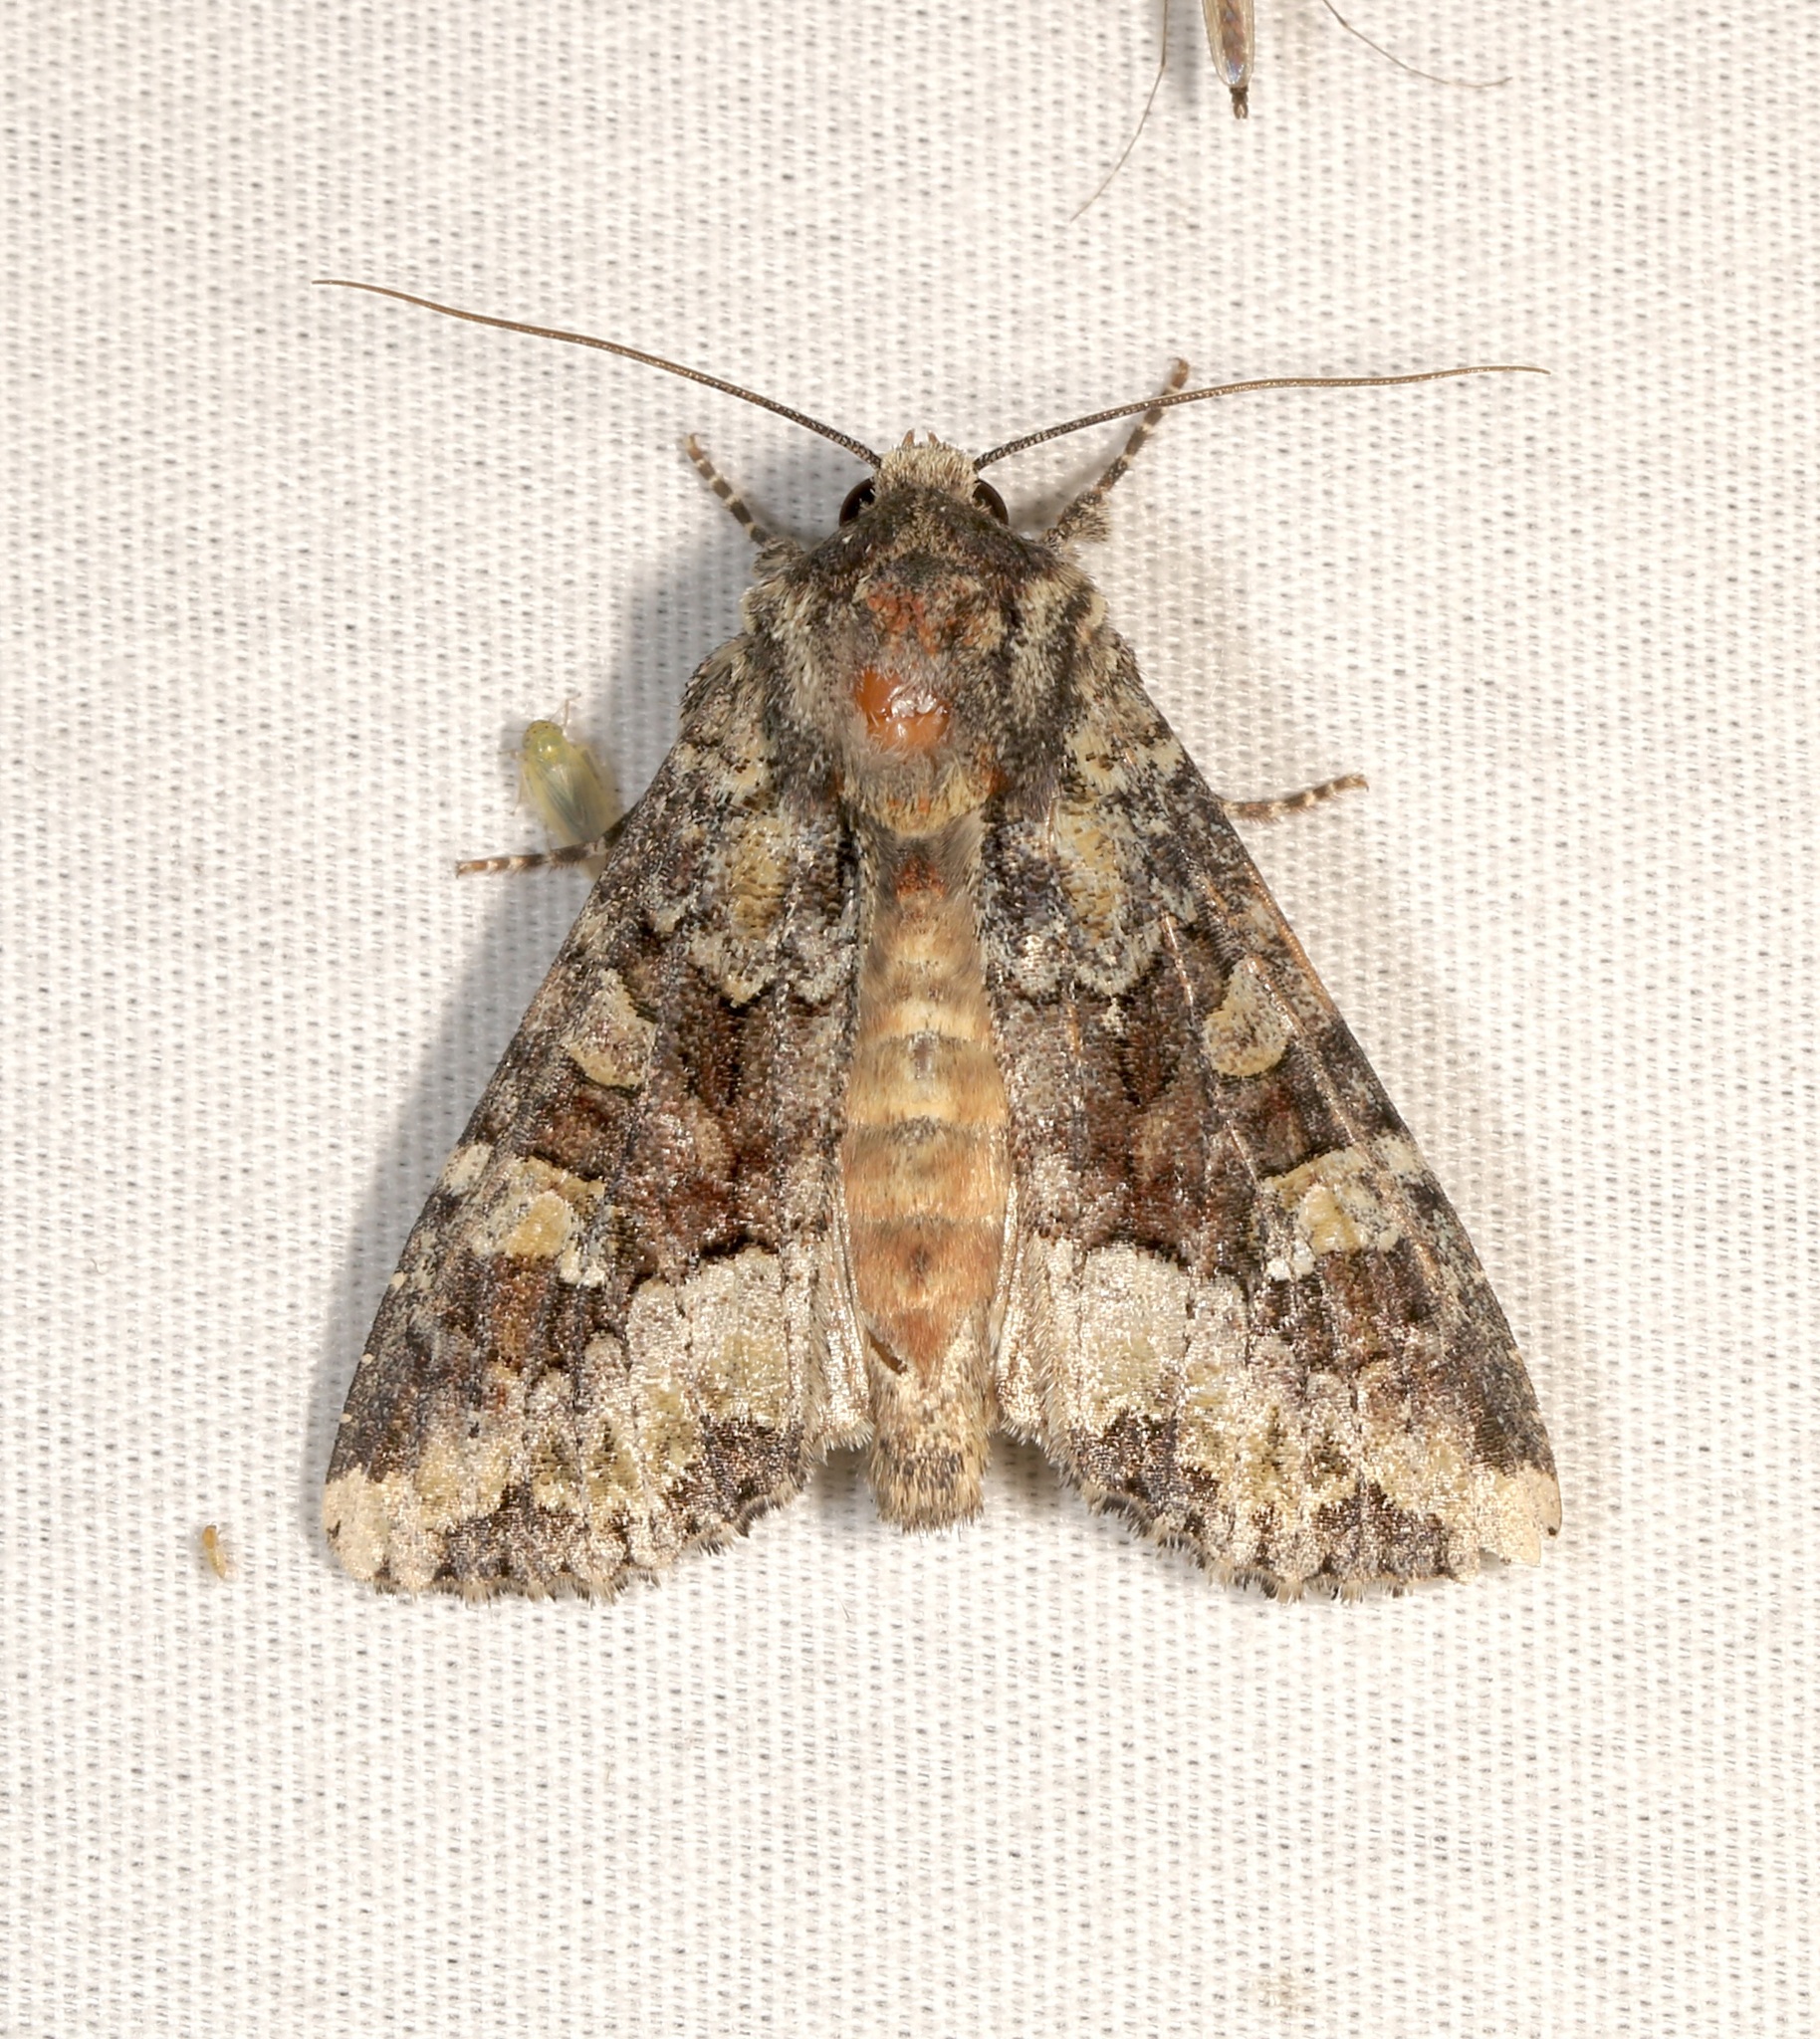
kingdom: Animalia
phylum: Arthropoda
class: Insecta
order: Lepidoptera
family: Noctuidae
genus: Apamea
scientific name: Apamea amputatrix
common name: Yellow-headed cutworm moth
